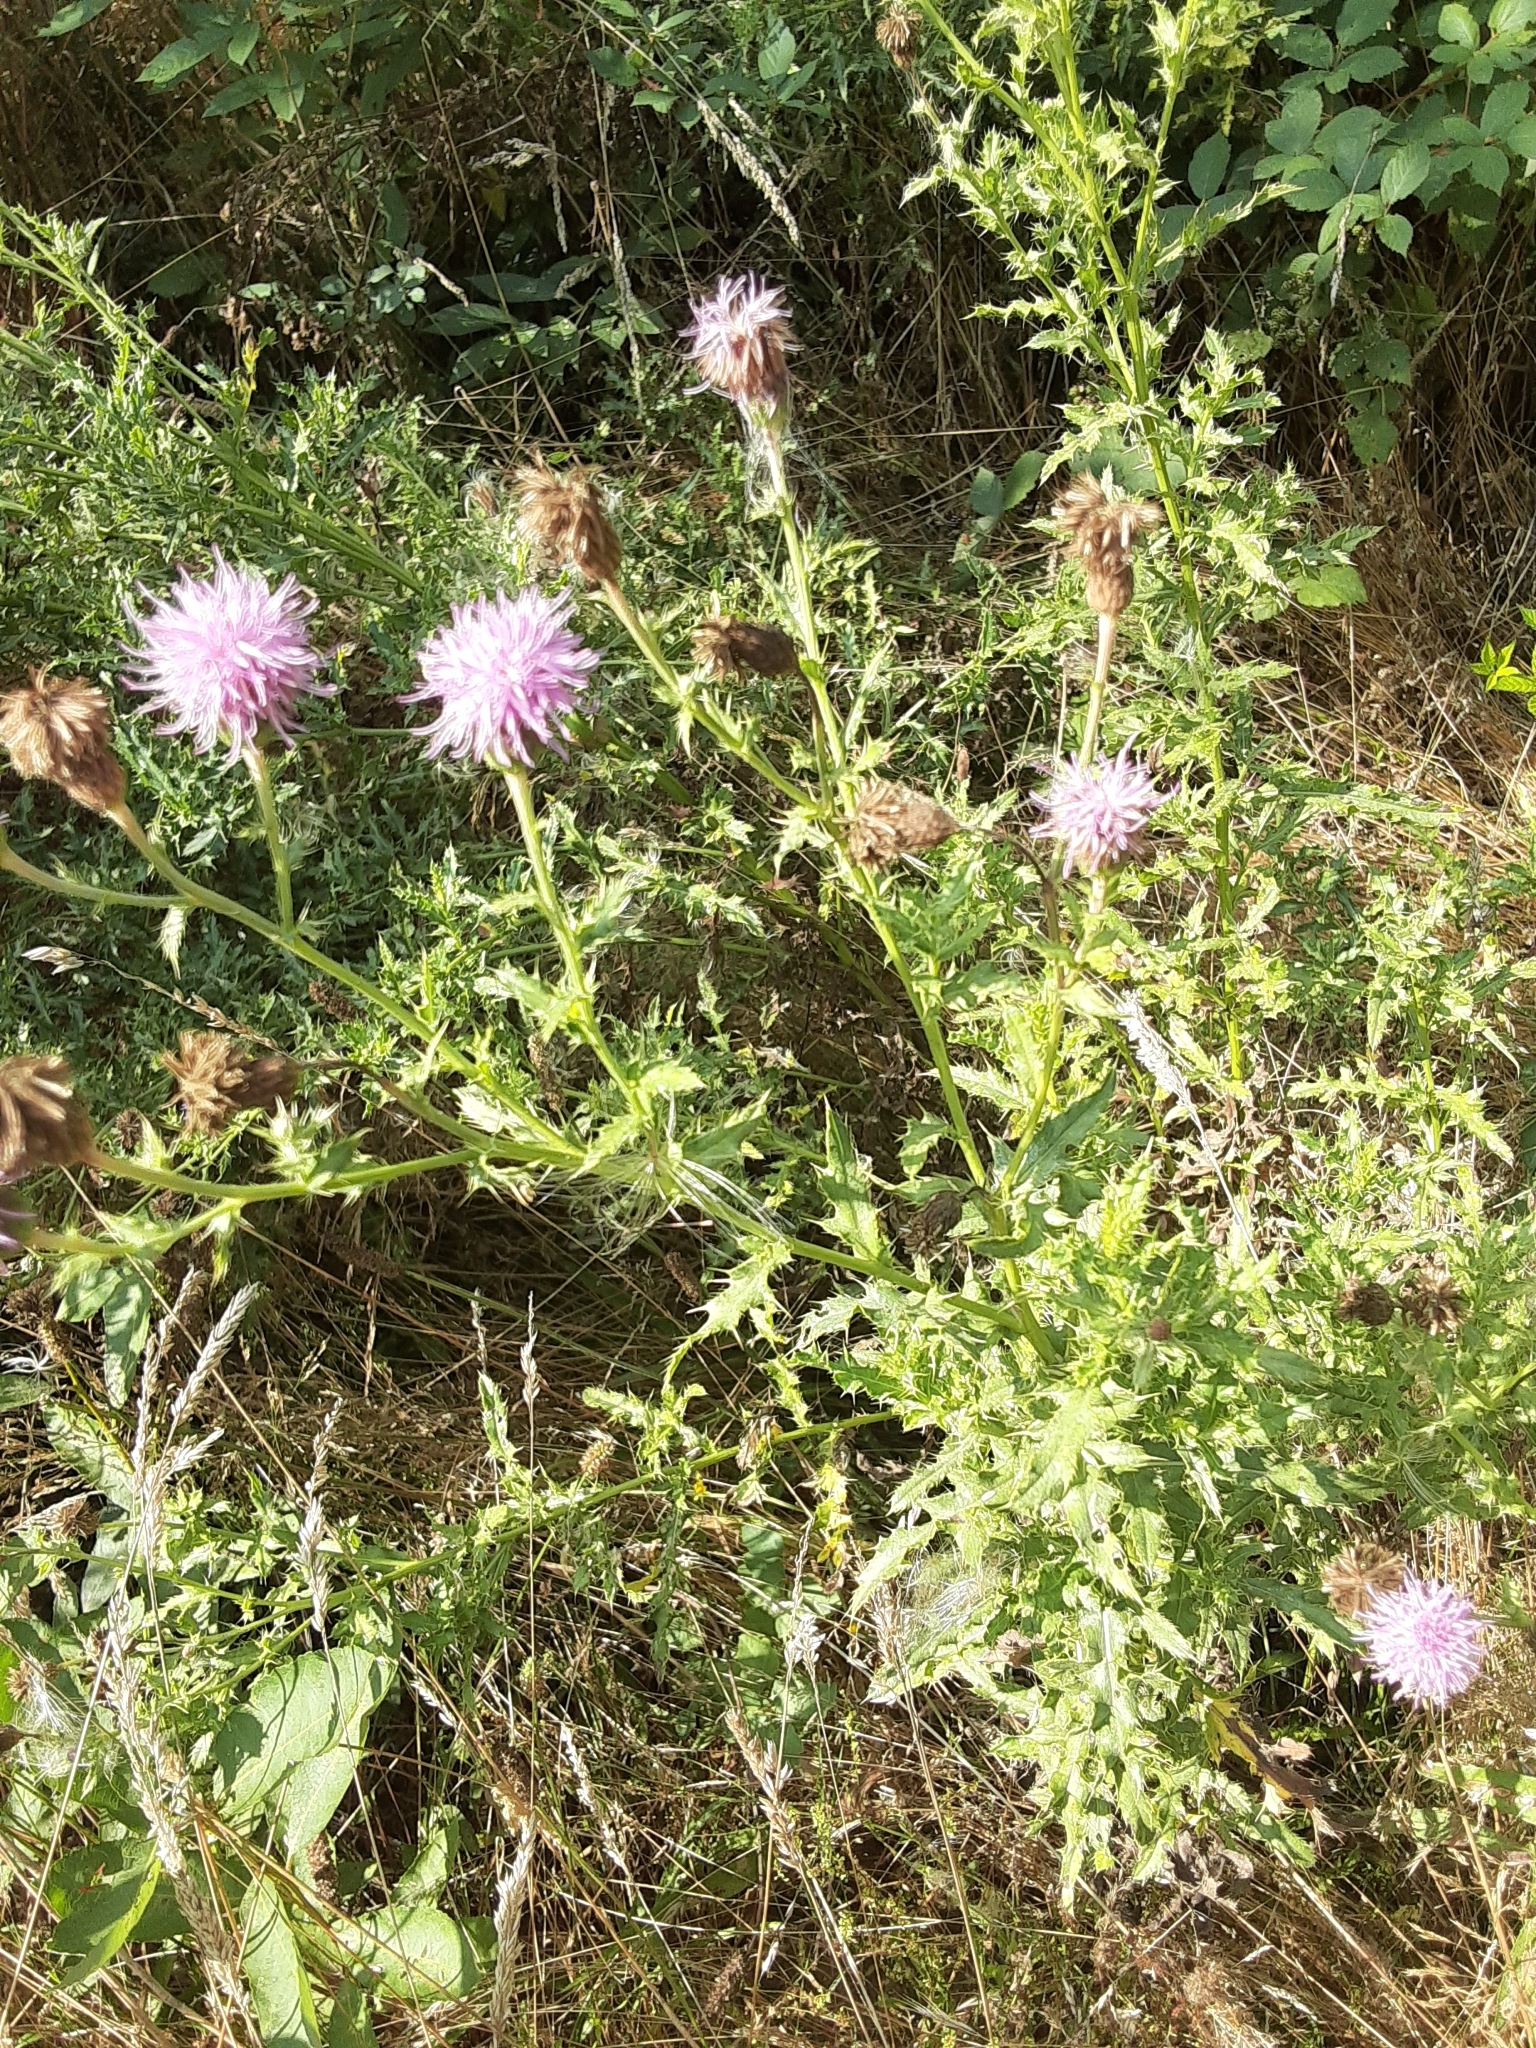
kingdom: Plantae
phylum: Tracheophyta
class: Magnoliopsida
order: Asterales
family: Asteraceae
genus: Cirsium
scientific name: Cirsium arvense
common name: Creeping thistle
